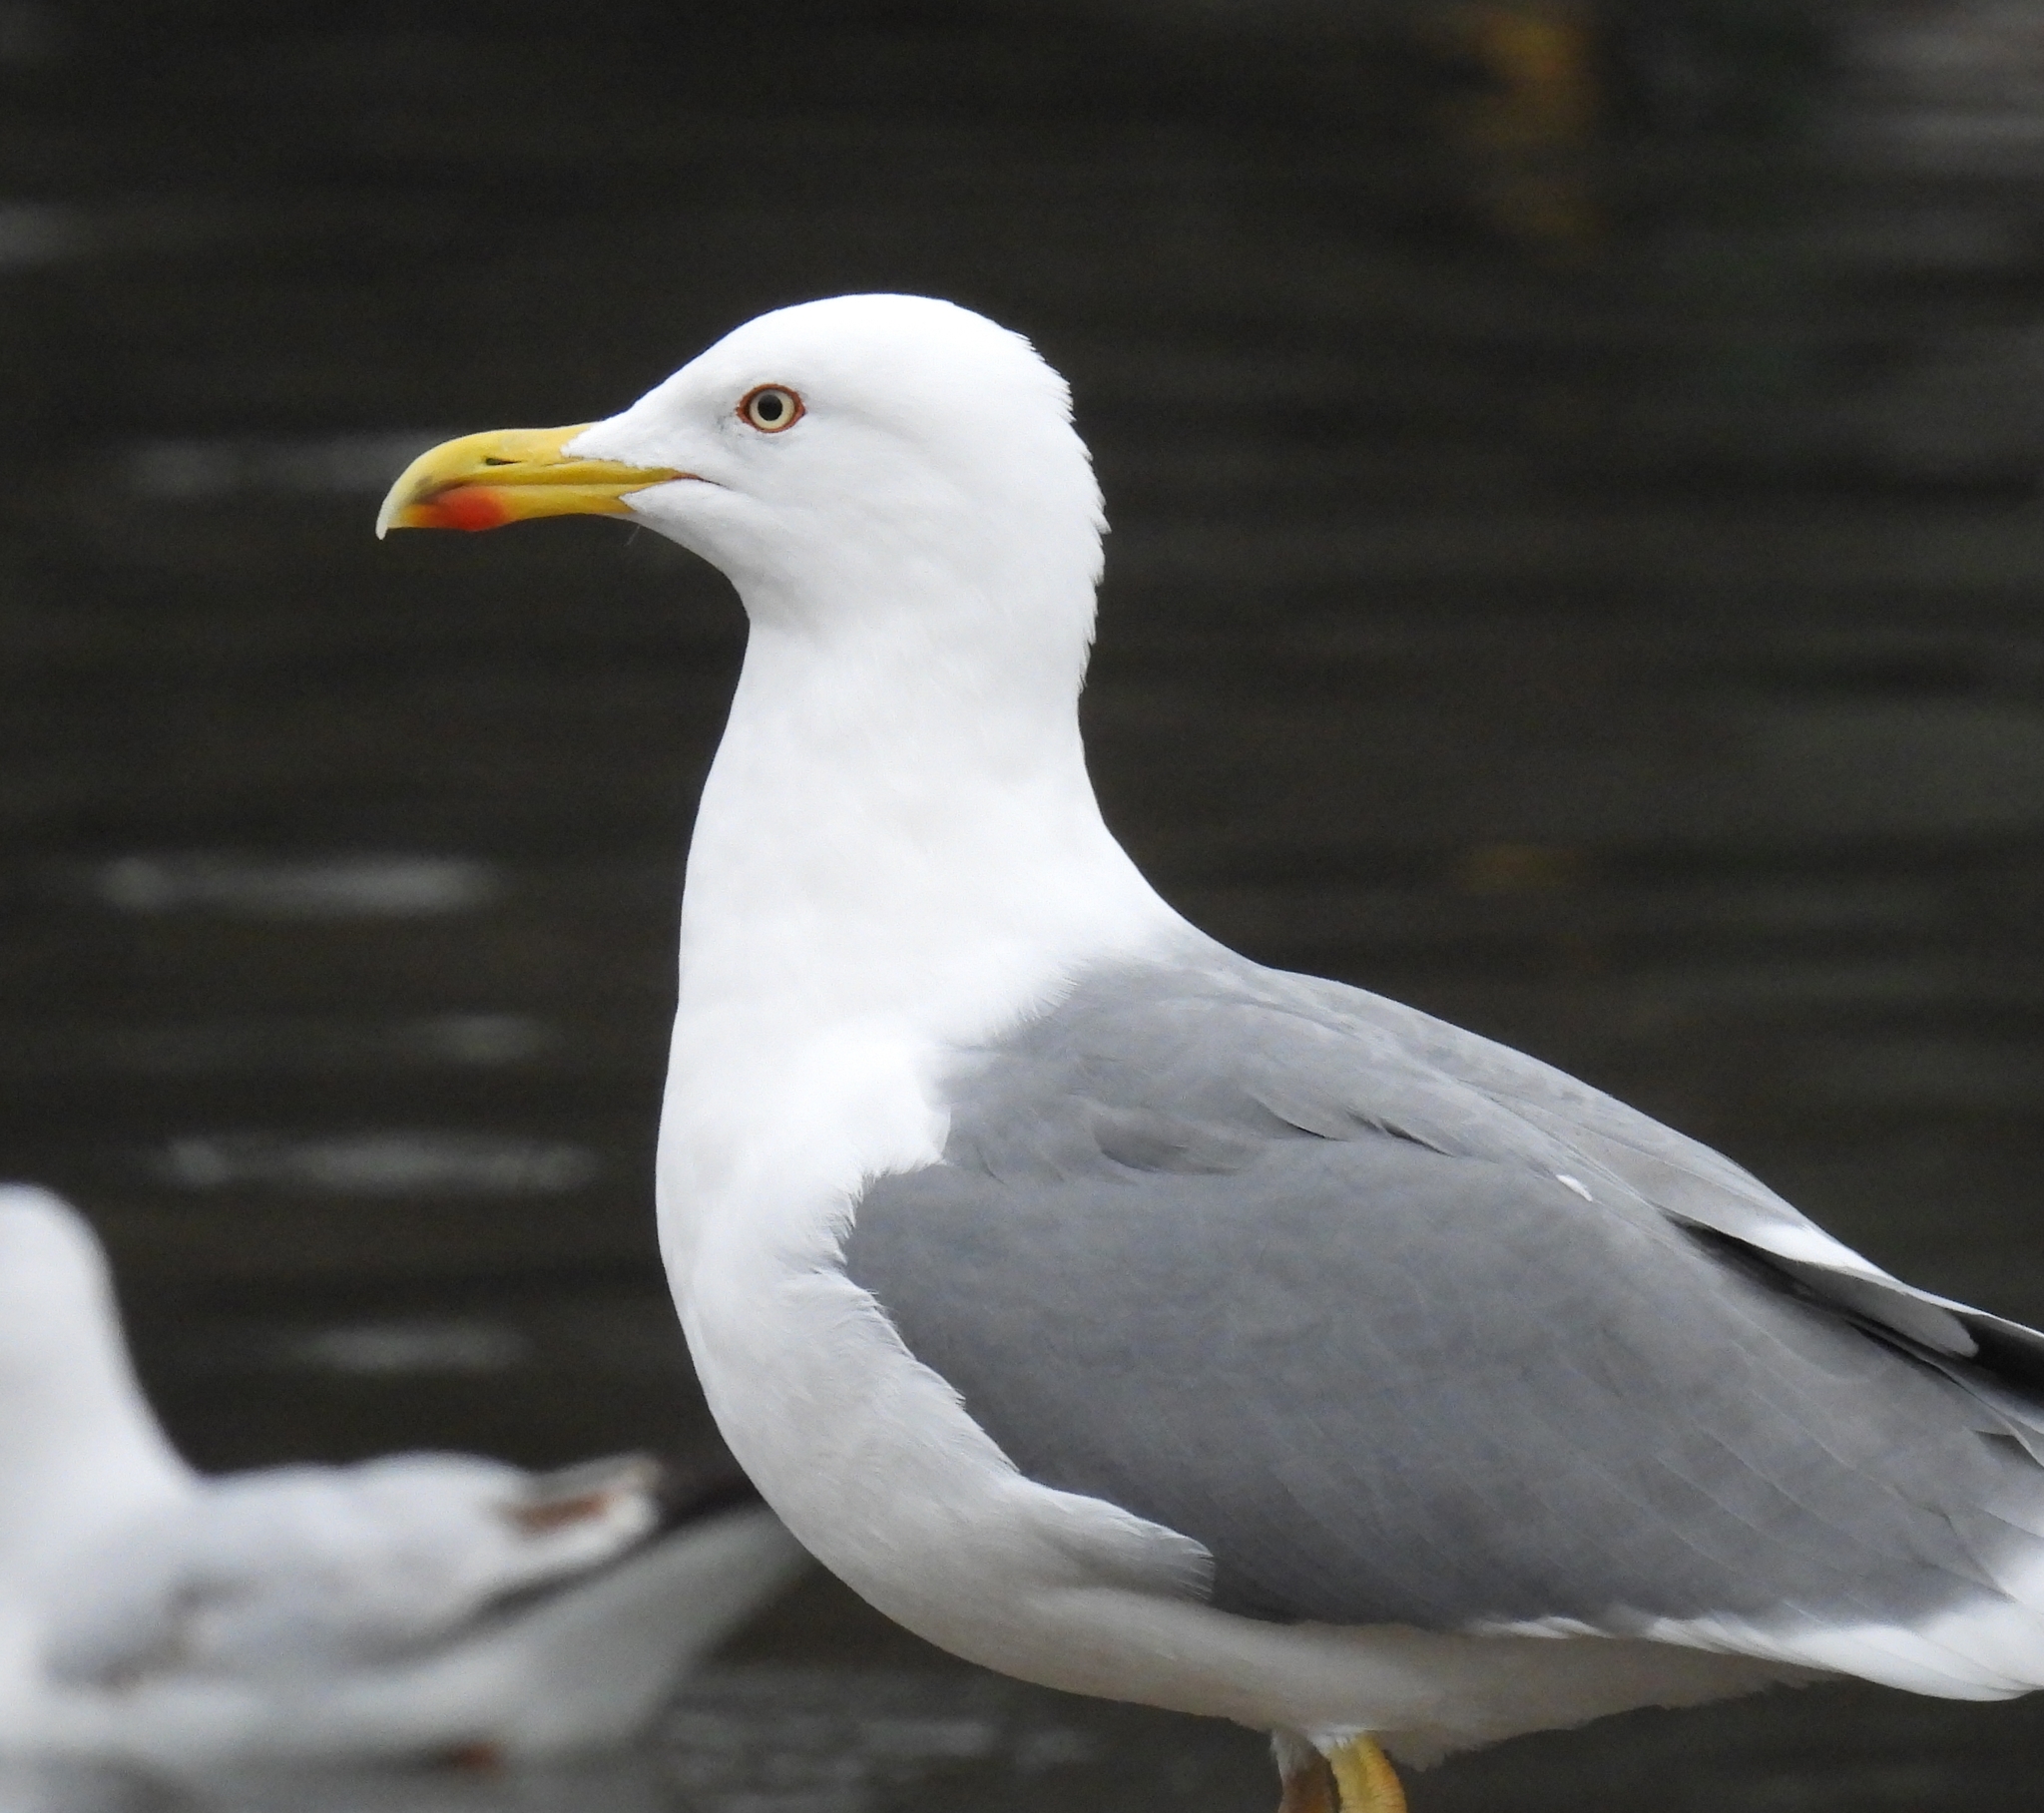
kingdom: Animalia
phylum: Chordata
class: Aves
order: Charadriiformes
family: Laridae
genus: Larus
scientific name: Larus michahellis
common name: Yellow-legged gull
